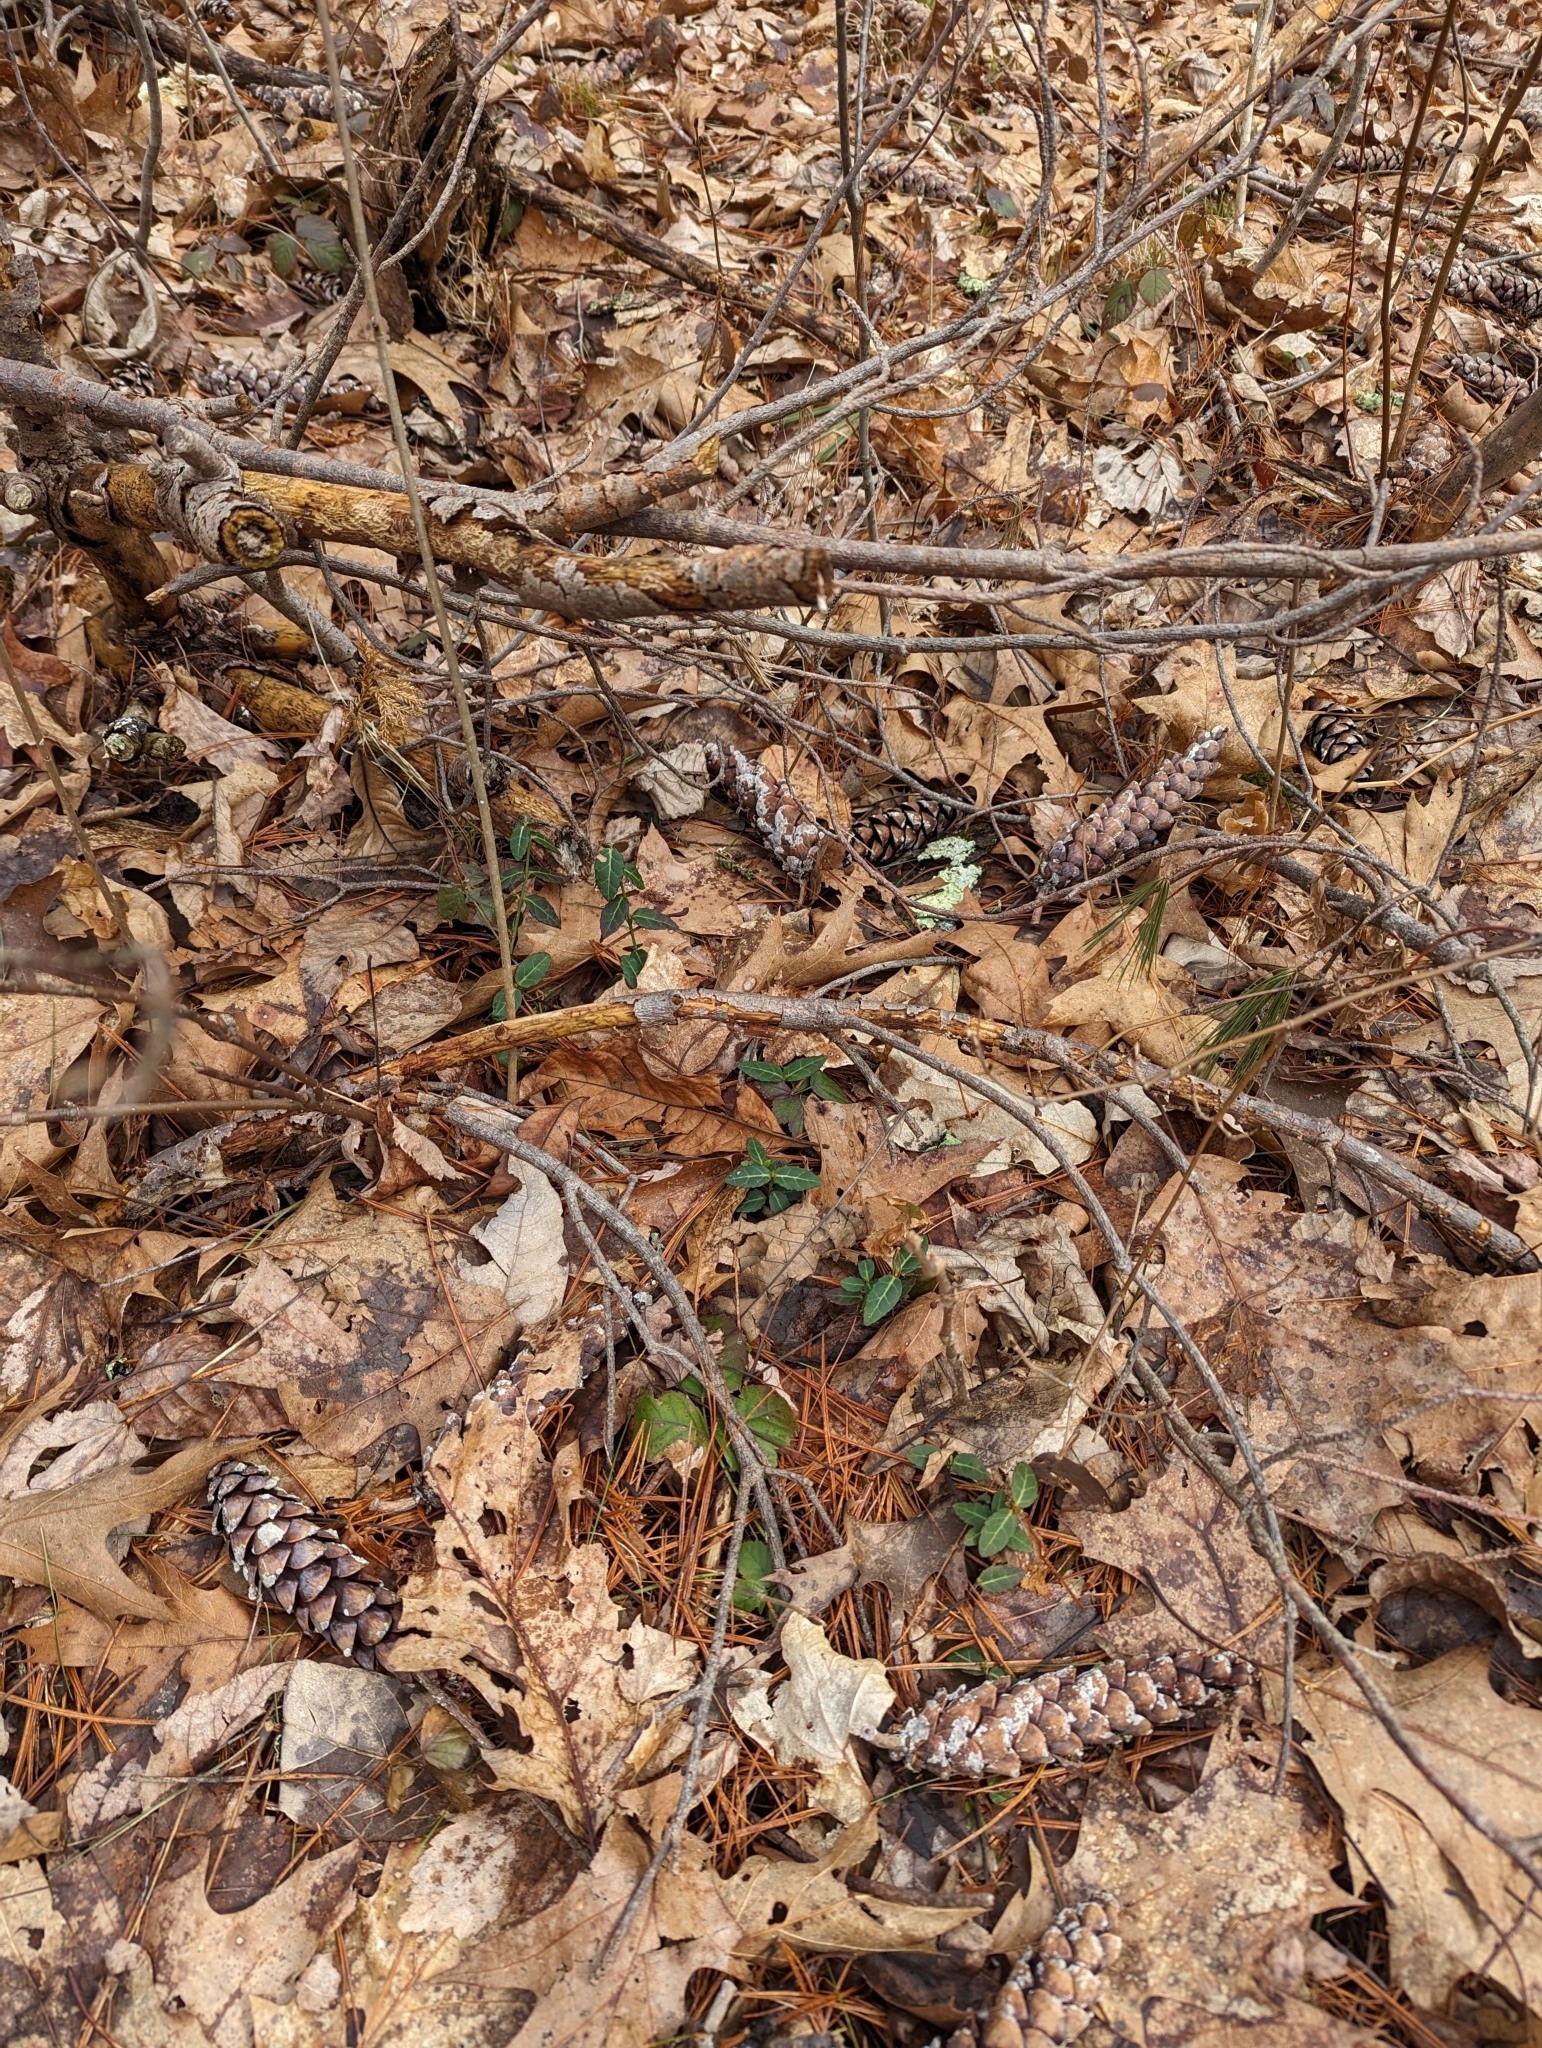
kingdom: Plantae
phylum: Tracheophyta
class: Magnoliopsida
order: Celastrales
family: Celastraceae
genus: Euonymus
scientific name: Euonymus fortunei
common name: Climbing euonymus
